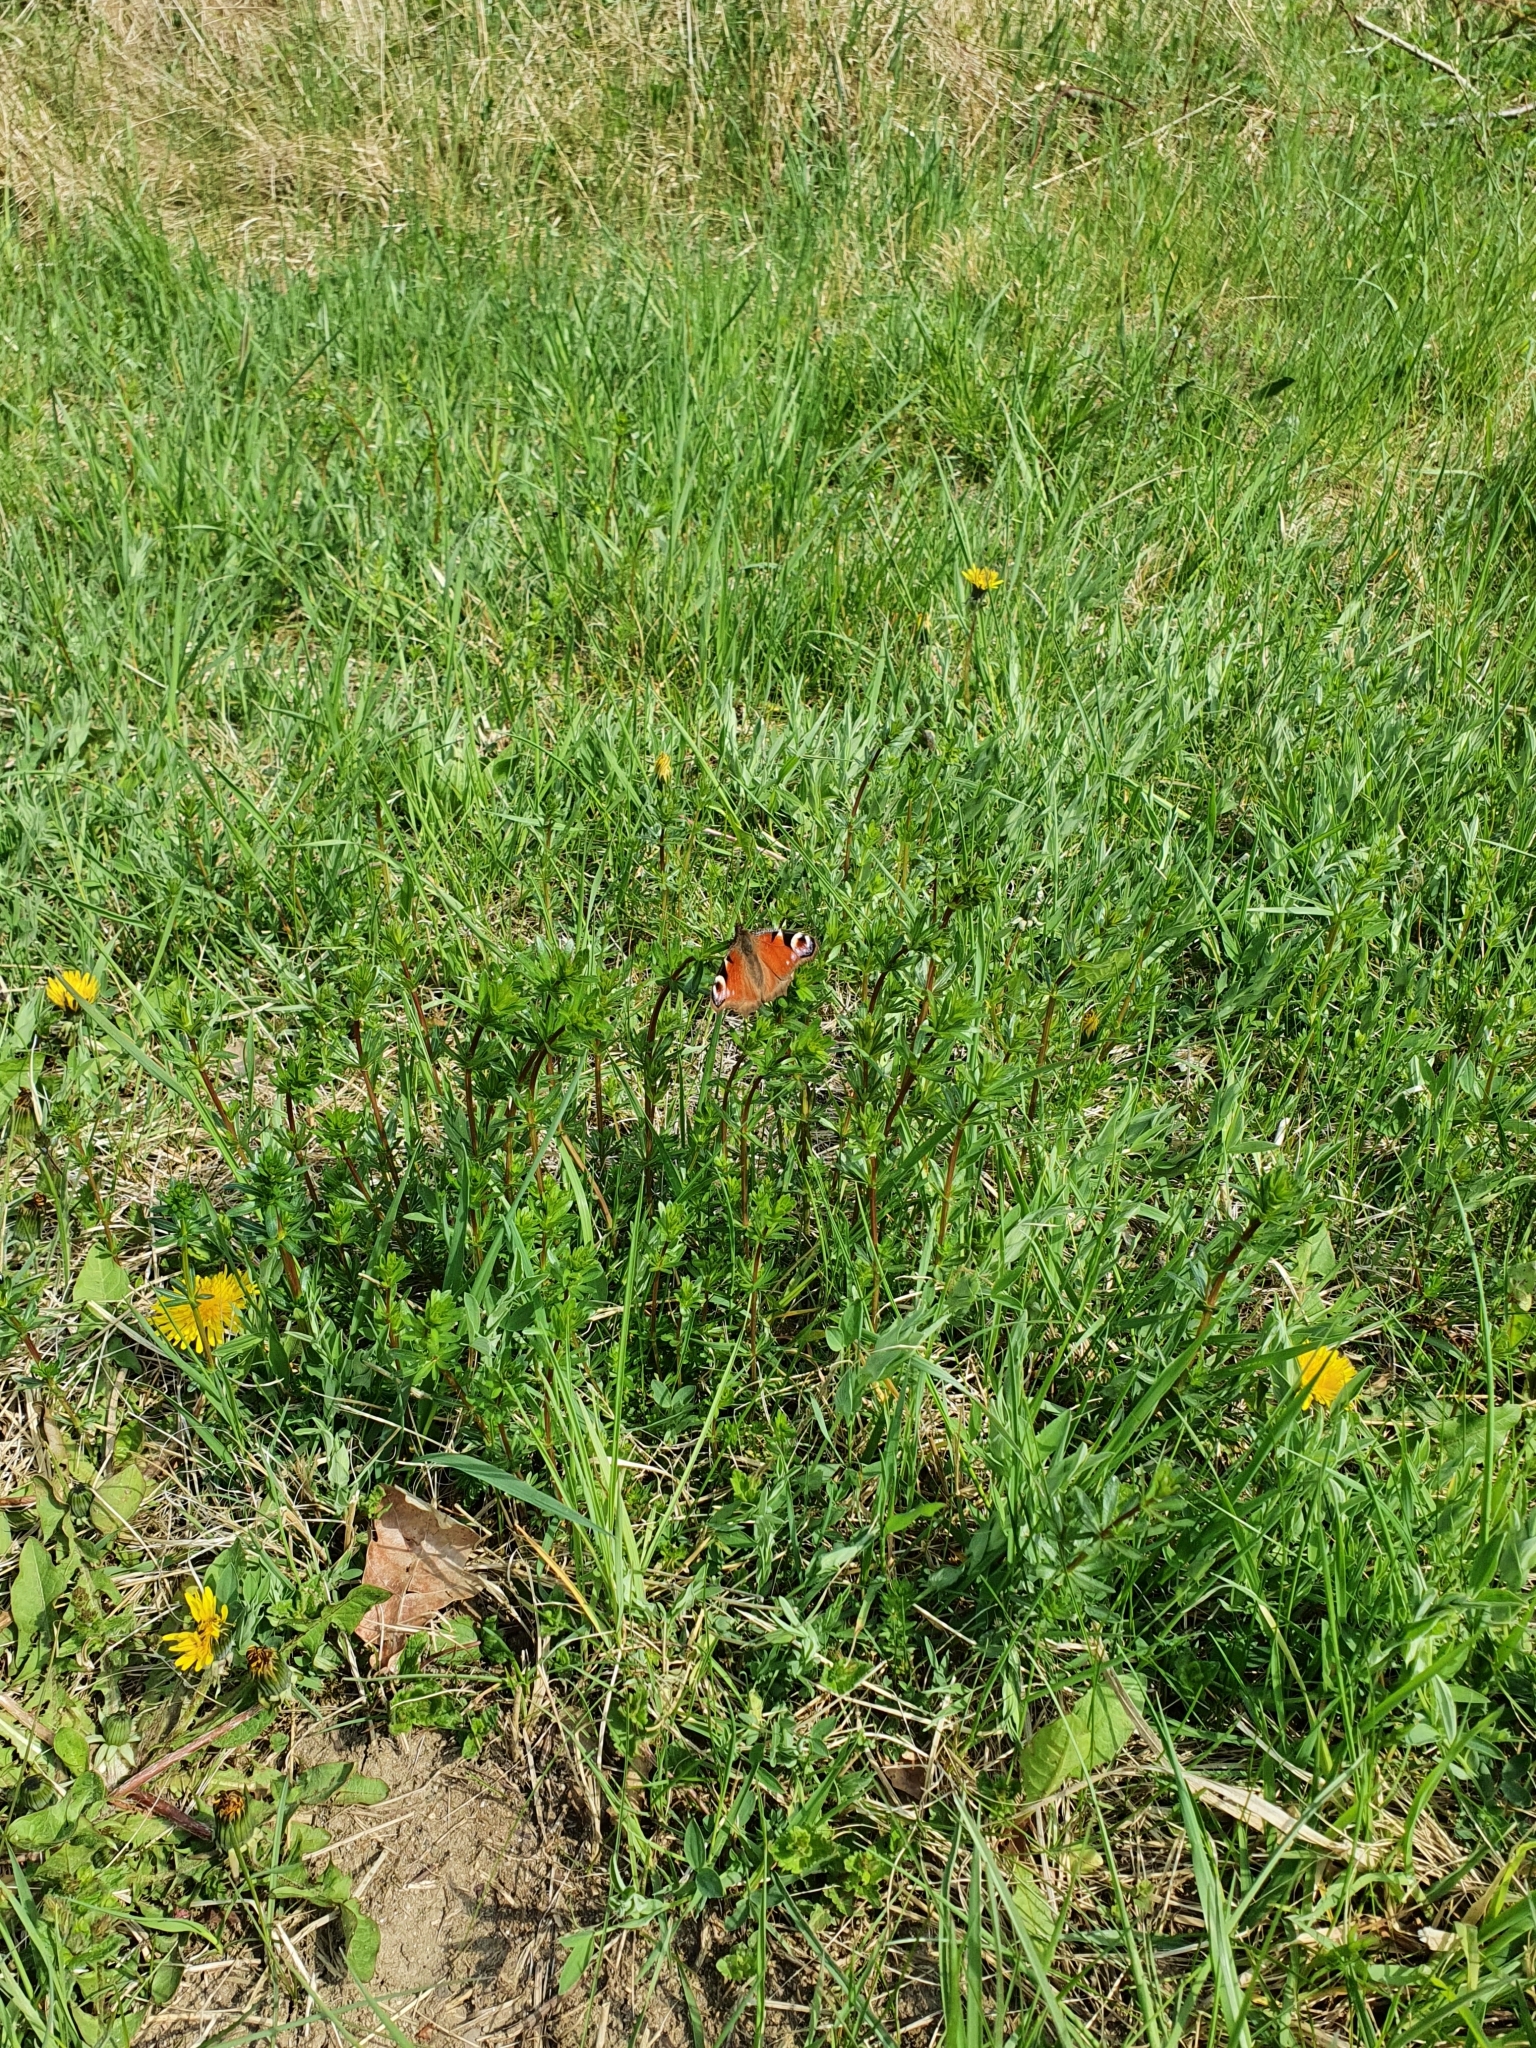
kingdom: Animalia
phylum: Arthropoda
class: Insecta
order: Lepidoptera
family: Nymphalidae
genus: Aglais
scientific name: Aglais io
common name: Peacock
